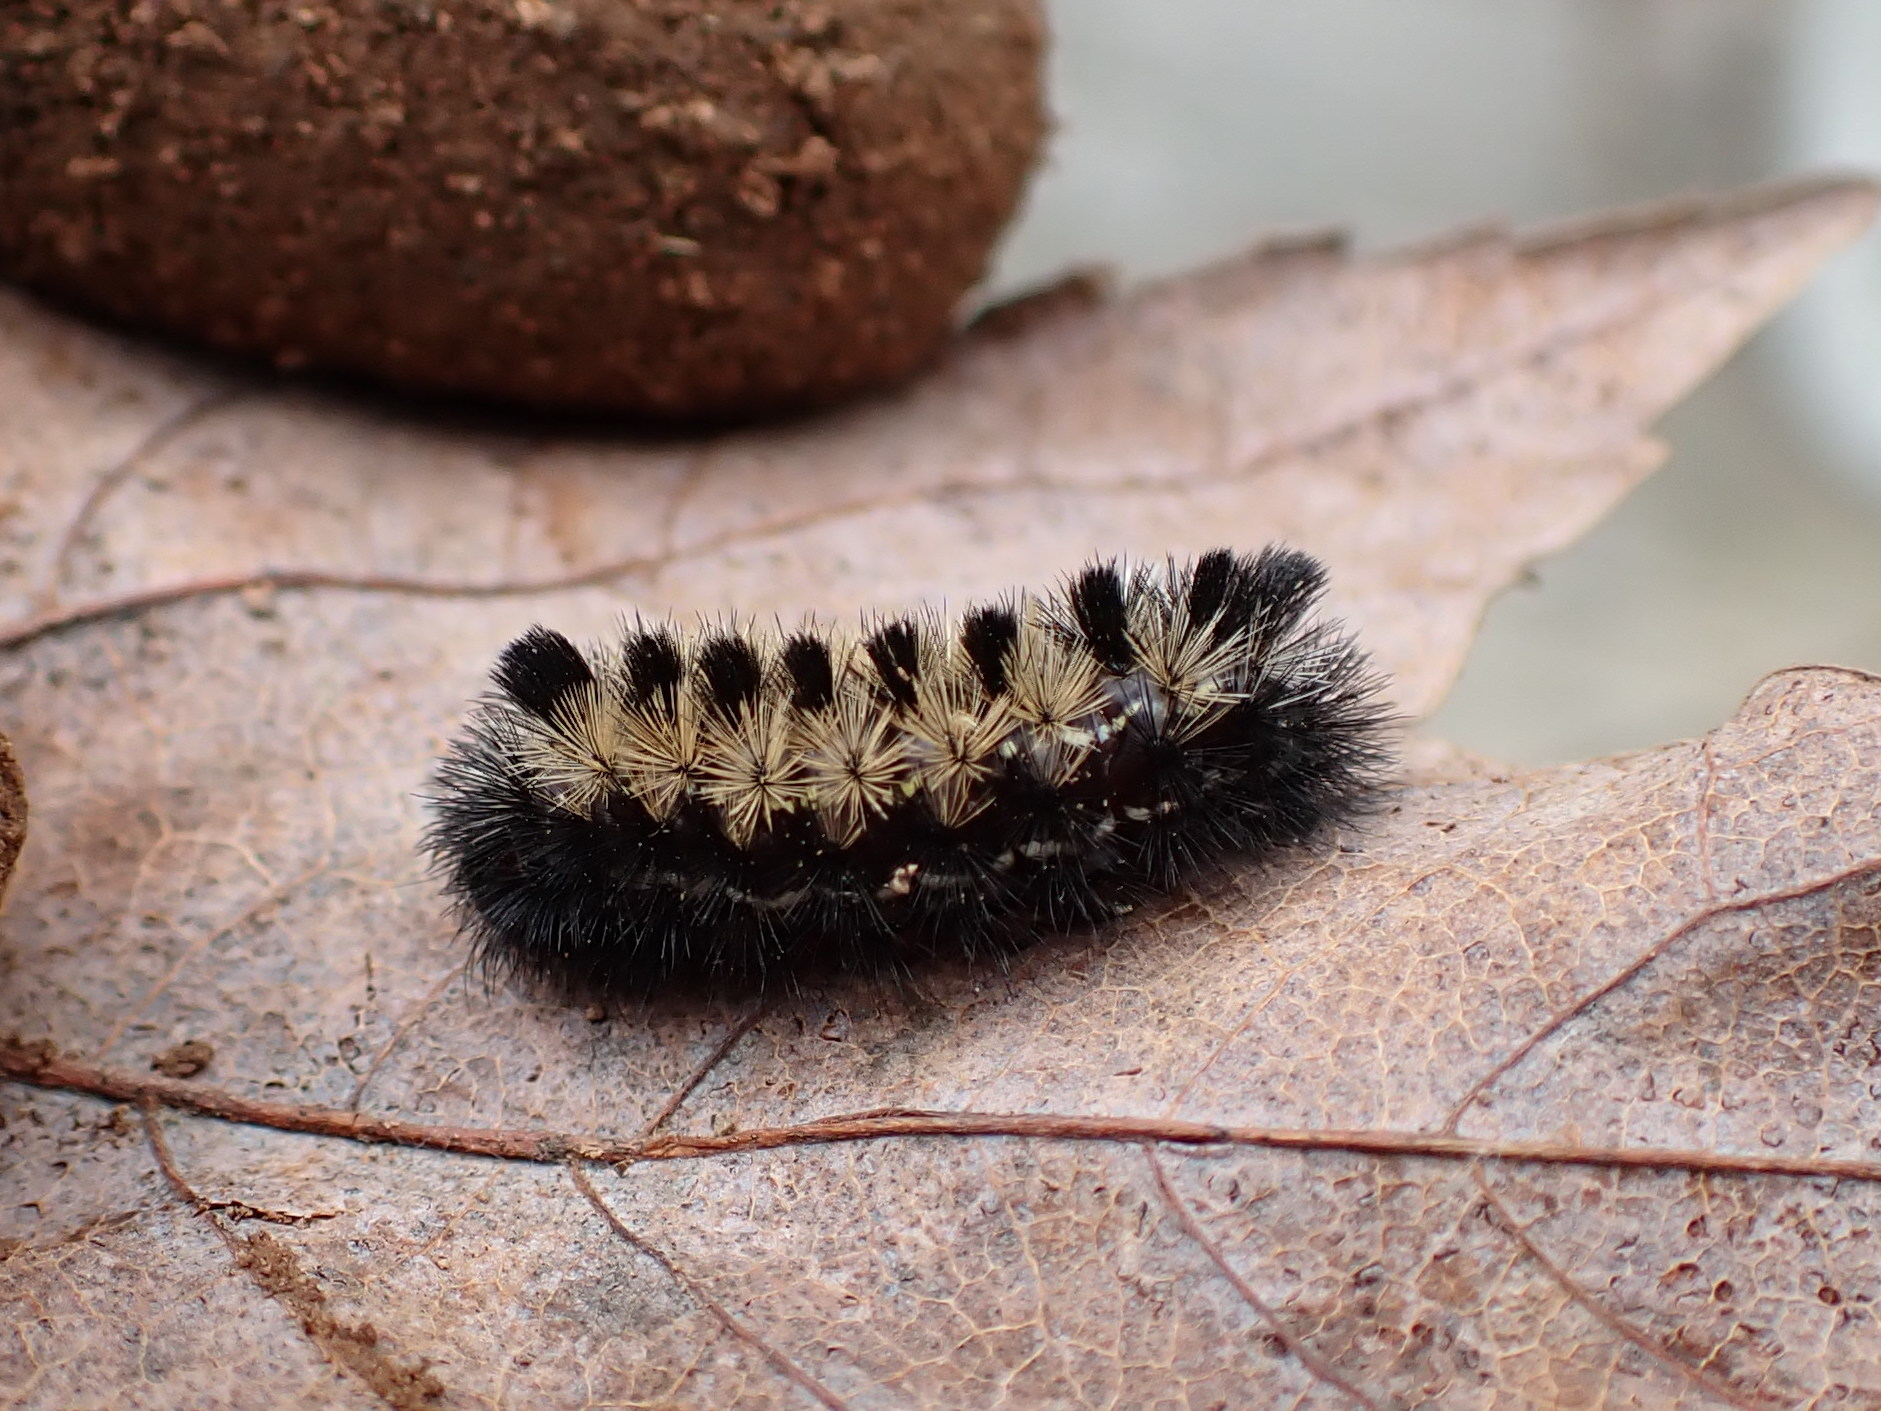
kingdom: Animalia
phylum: Arthropoda
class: Insecta
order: Lepidoptera
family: Erebidae
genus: Ctenucha
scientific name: Ctenucha virginica
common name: Virginia ctenucha moth
